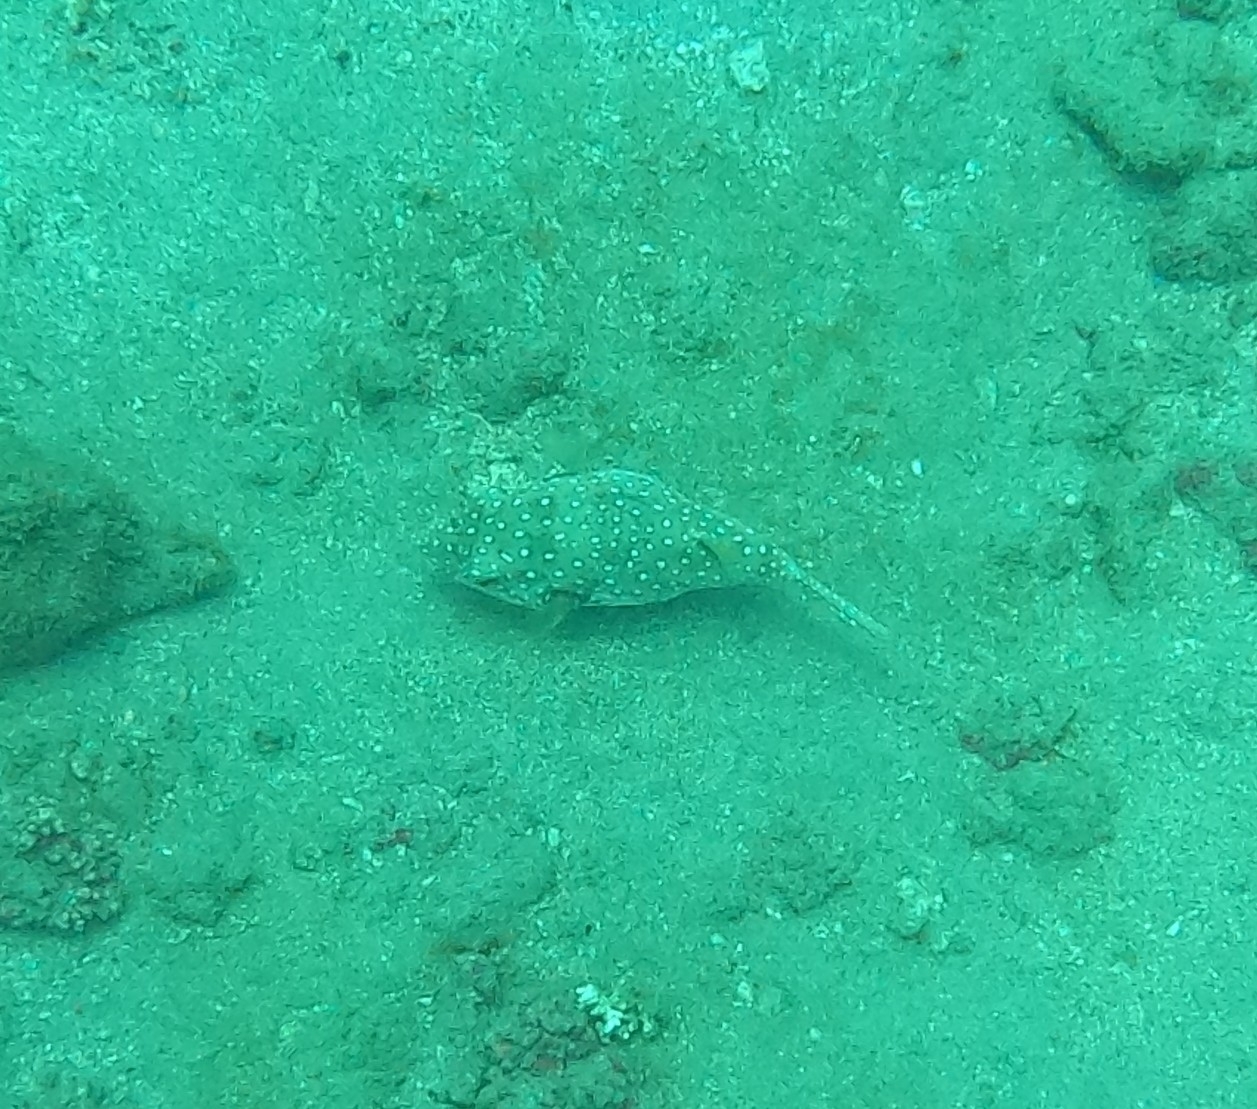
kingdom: Animalia
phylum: Chordata
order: Tetraodontiformes
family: Tetraodontidae
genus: Arothron
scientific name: Arothron hispidus
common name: Stripebelly puffer
